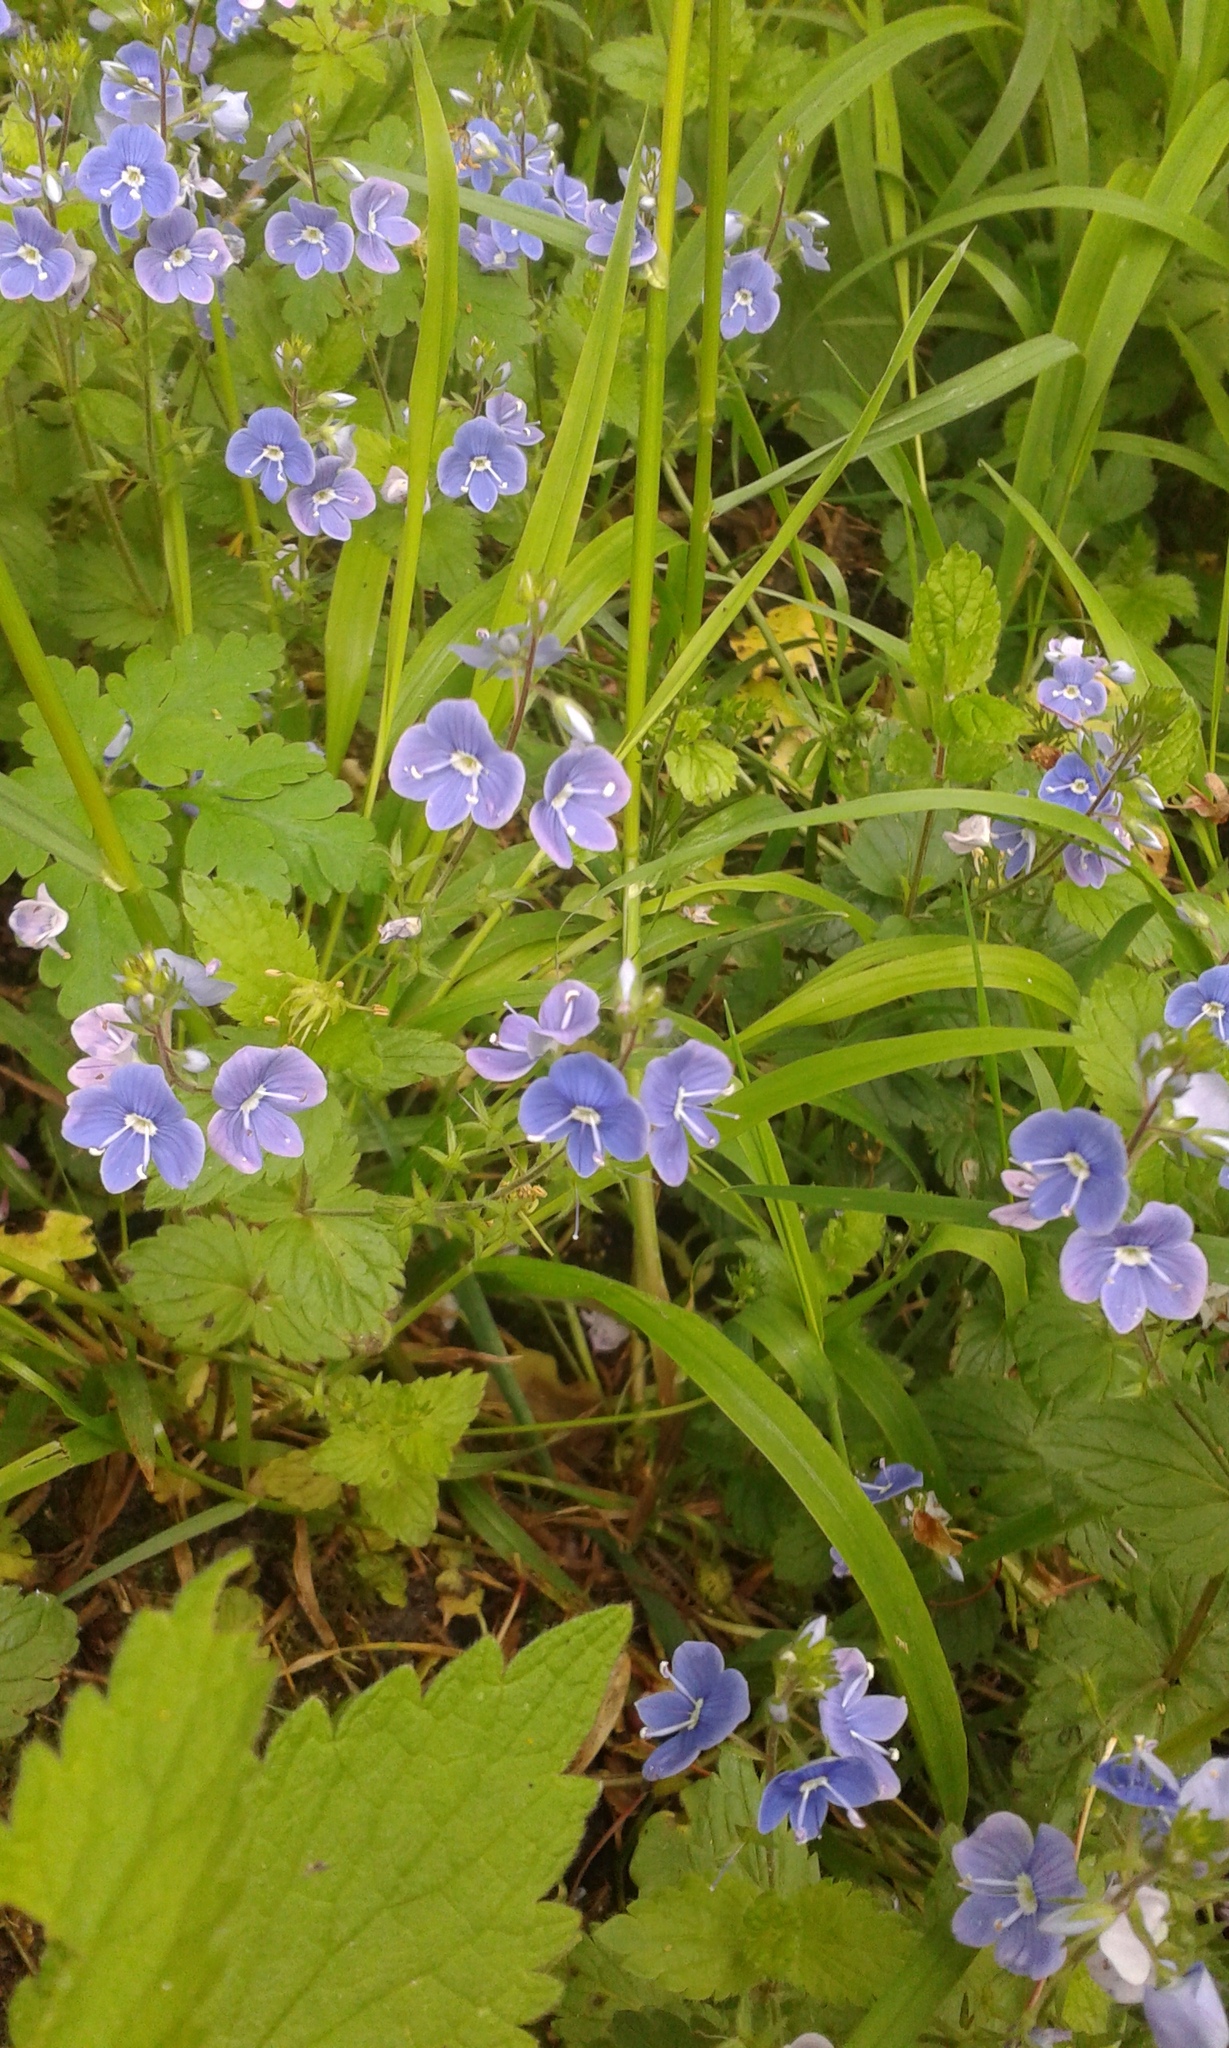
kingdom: Plantae
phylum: Tracheophyta
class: Magnoliopsida
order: Lamiales
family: Plantaginaceae
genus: Veronica
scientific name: Veronica chamaedrys
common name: Germander speedwell
